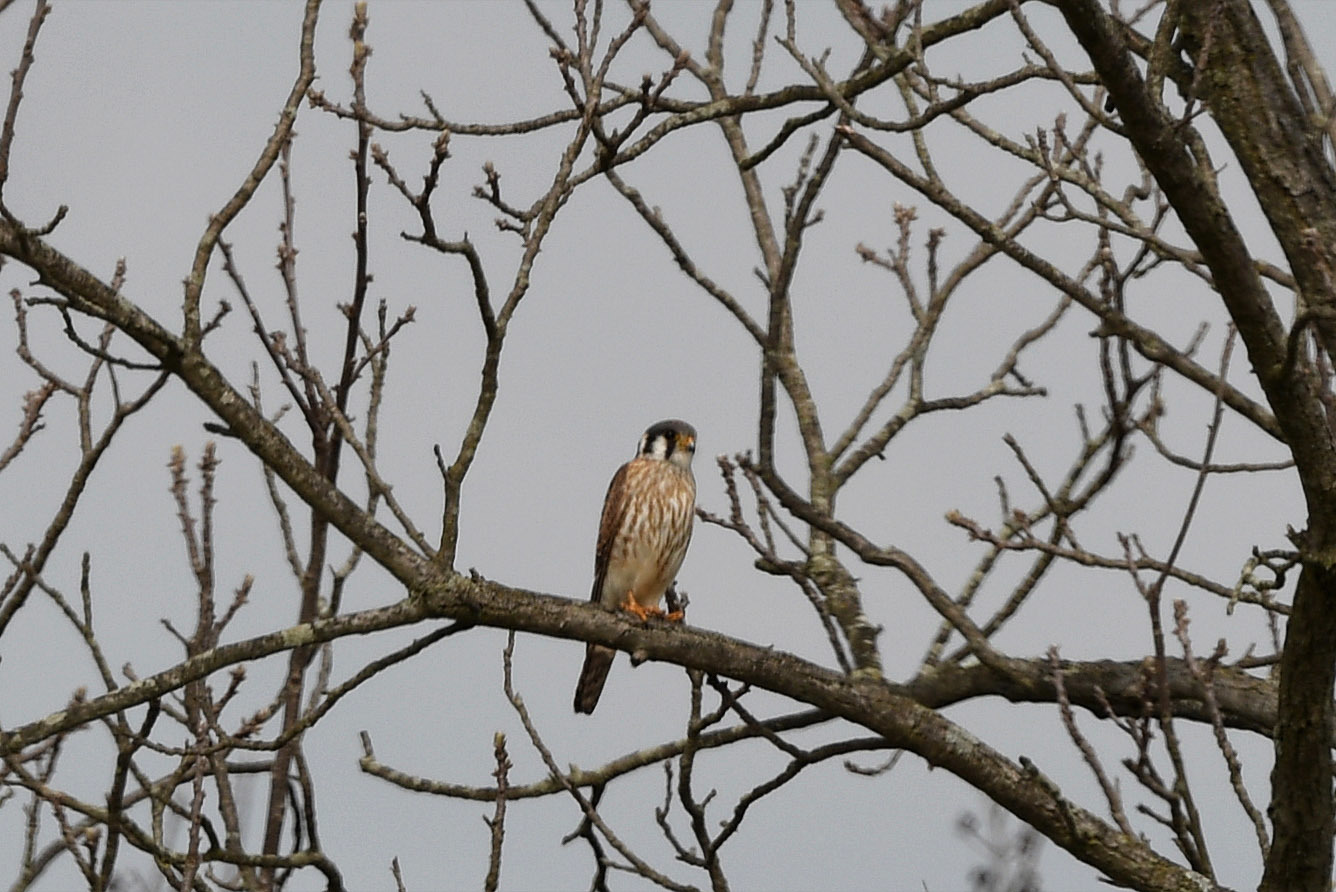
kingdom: Animalia
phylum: Chordata
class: Aves
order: Falconiformes
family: Falconidae
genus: Falco
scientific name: Falco sparverius
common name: American kestrel
